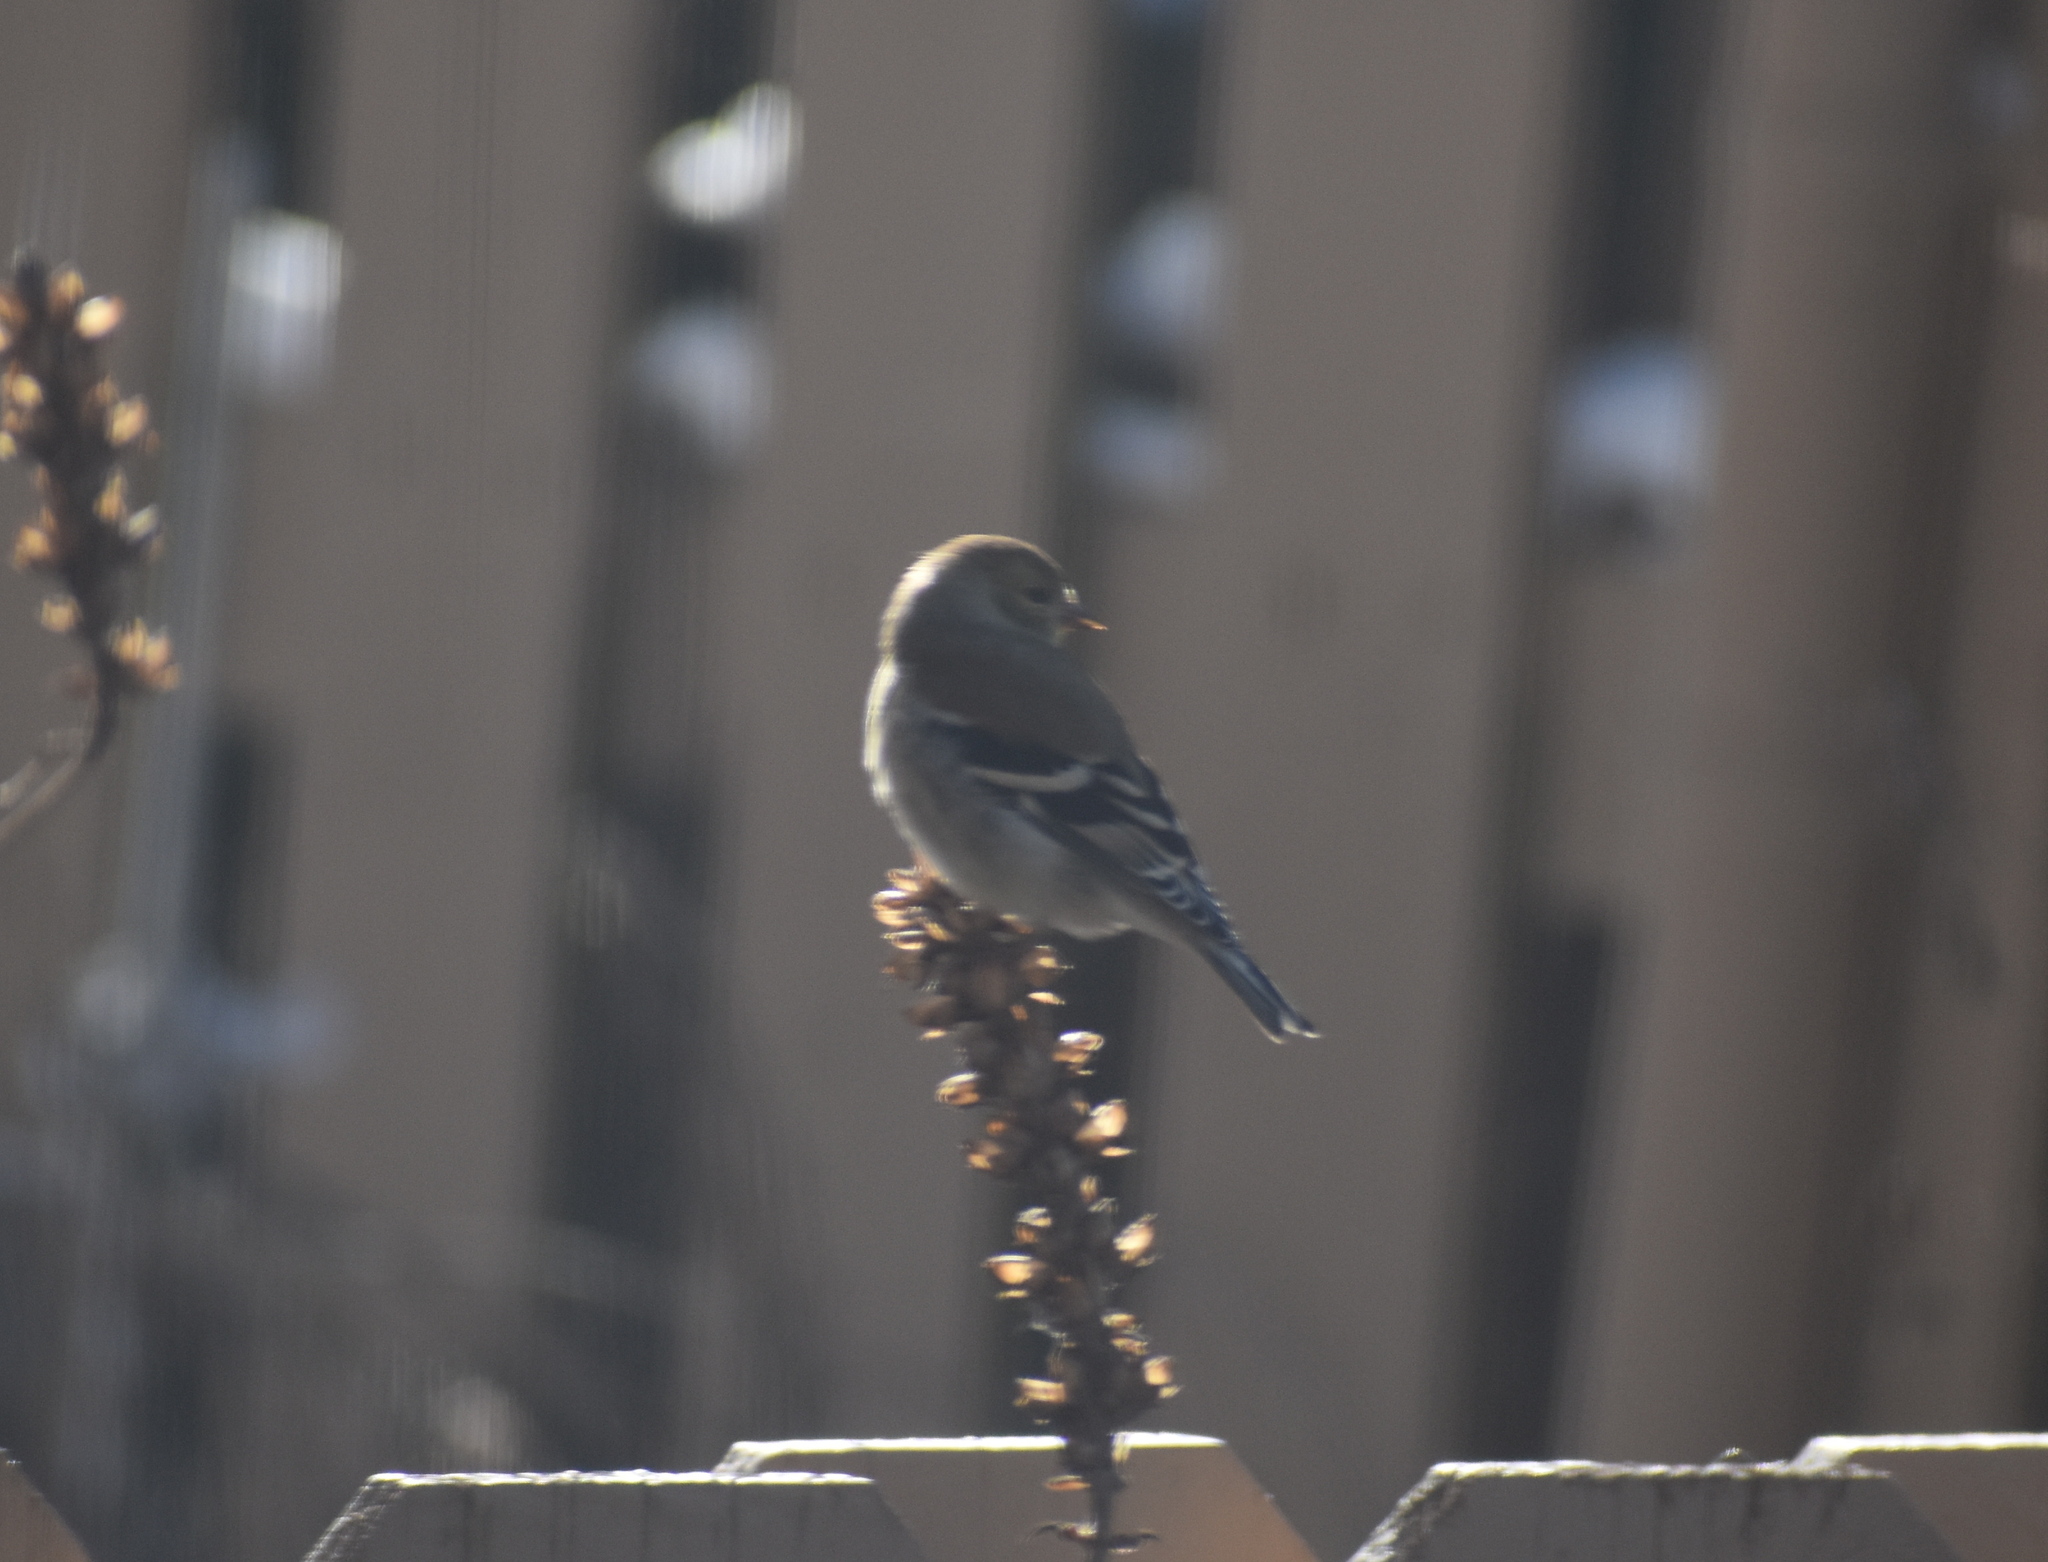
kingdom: Animalia
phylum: Chordata
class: Aves
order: Passeriformes
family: Fringillidae
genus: Spinus
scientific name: Spinus tristis
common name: American goldfinch
